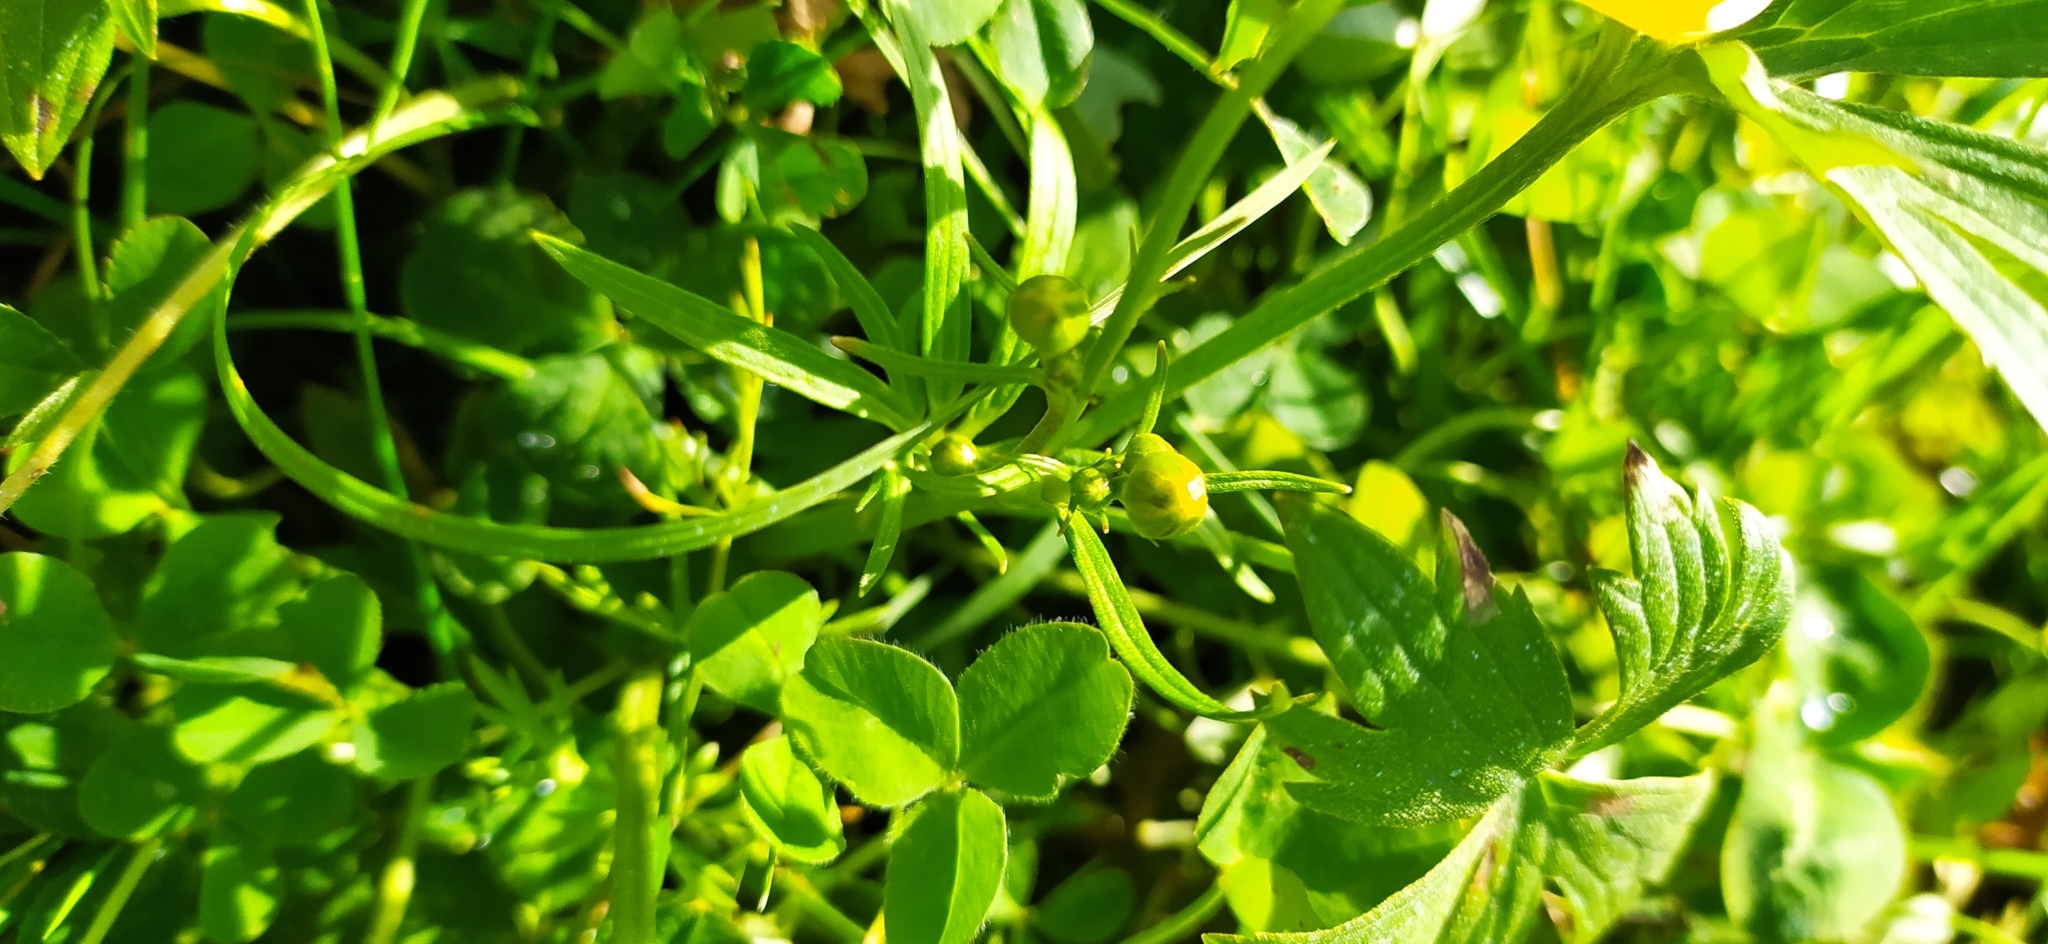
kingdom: Plantae
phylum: Tracheophyta
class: Magnoliopsida
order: Ranunculales
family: Ranunculaceae
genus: Ranunculus
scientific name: Ranunculus propinquus
